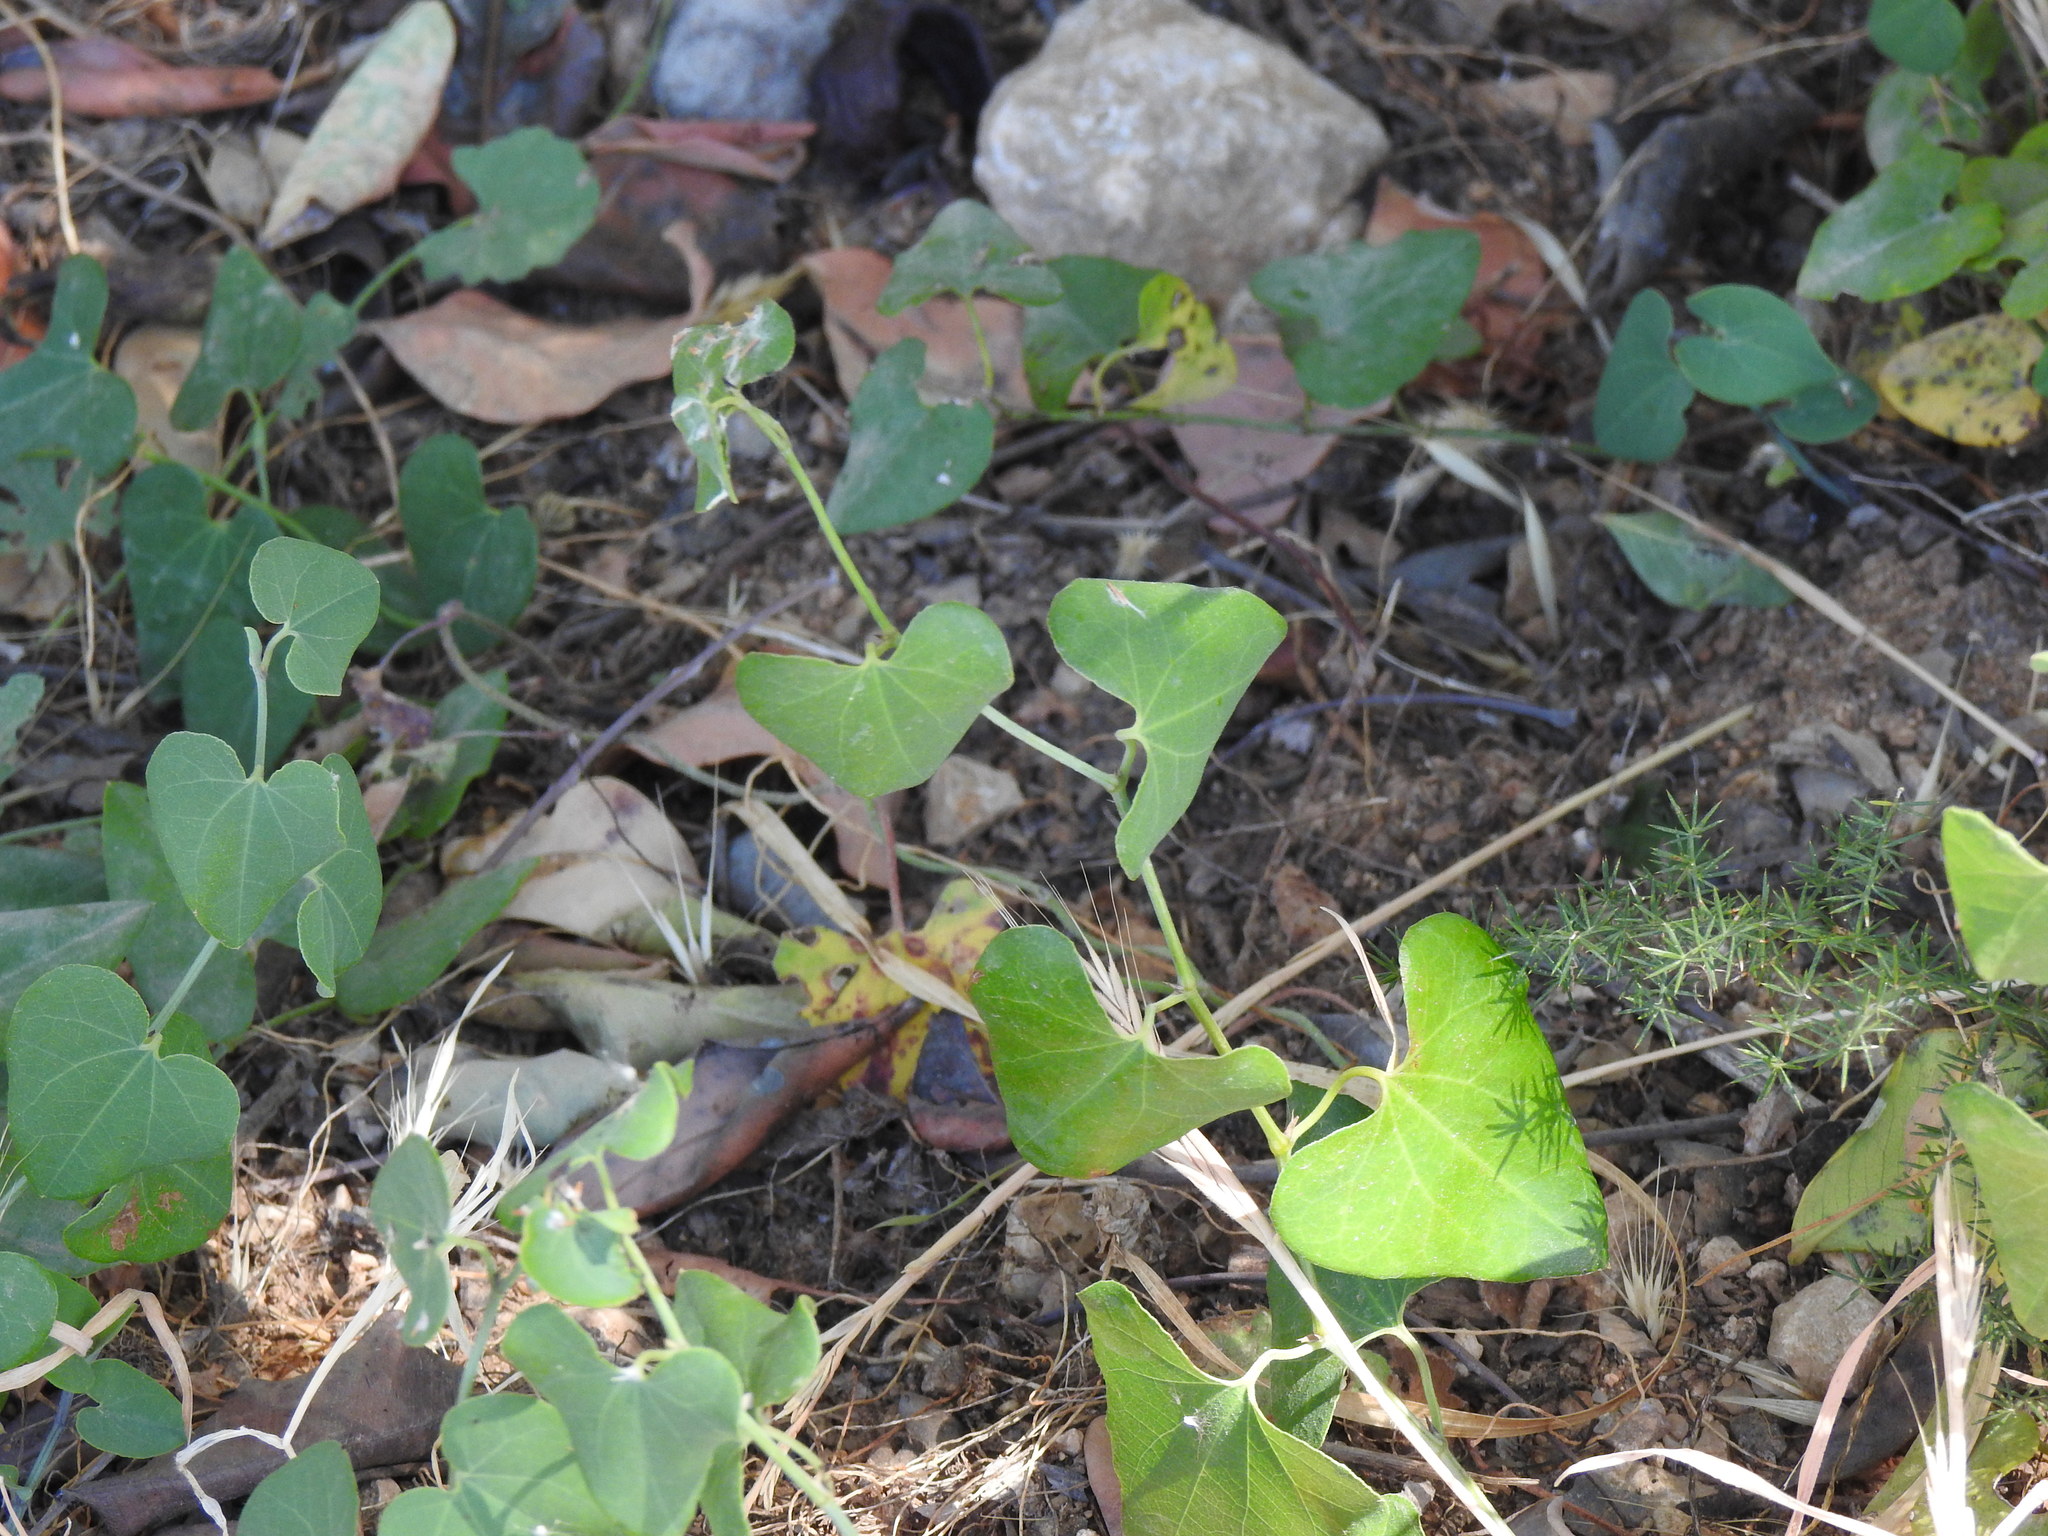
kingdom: Plantae
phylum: Tracheophyta
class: Magnoliopsida
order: Piperales
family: Aristolochiaceae
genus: Aristolochia
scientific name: Aristolochia baetica
